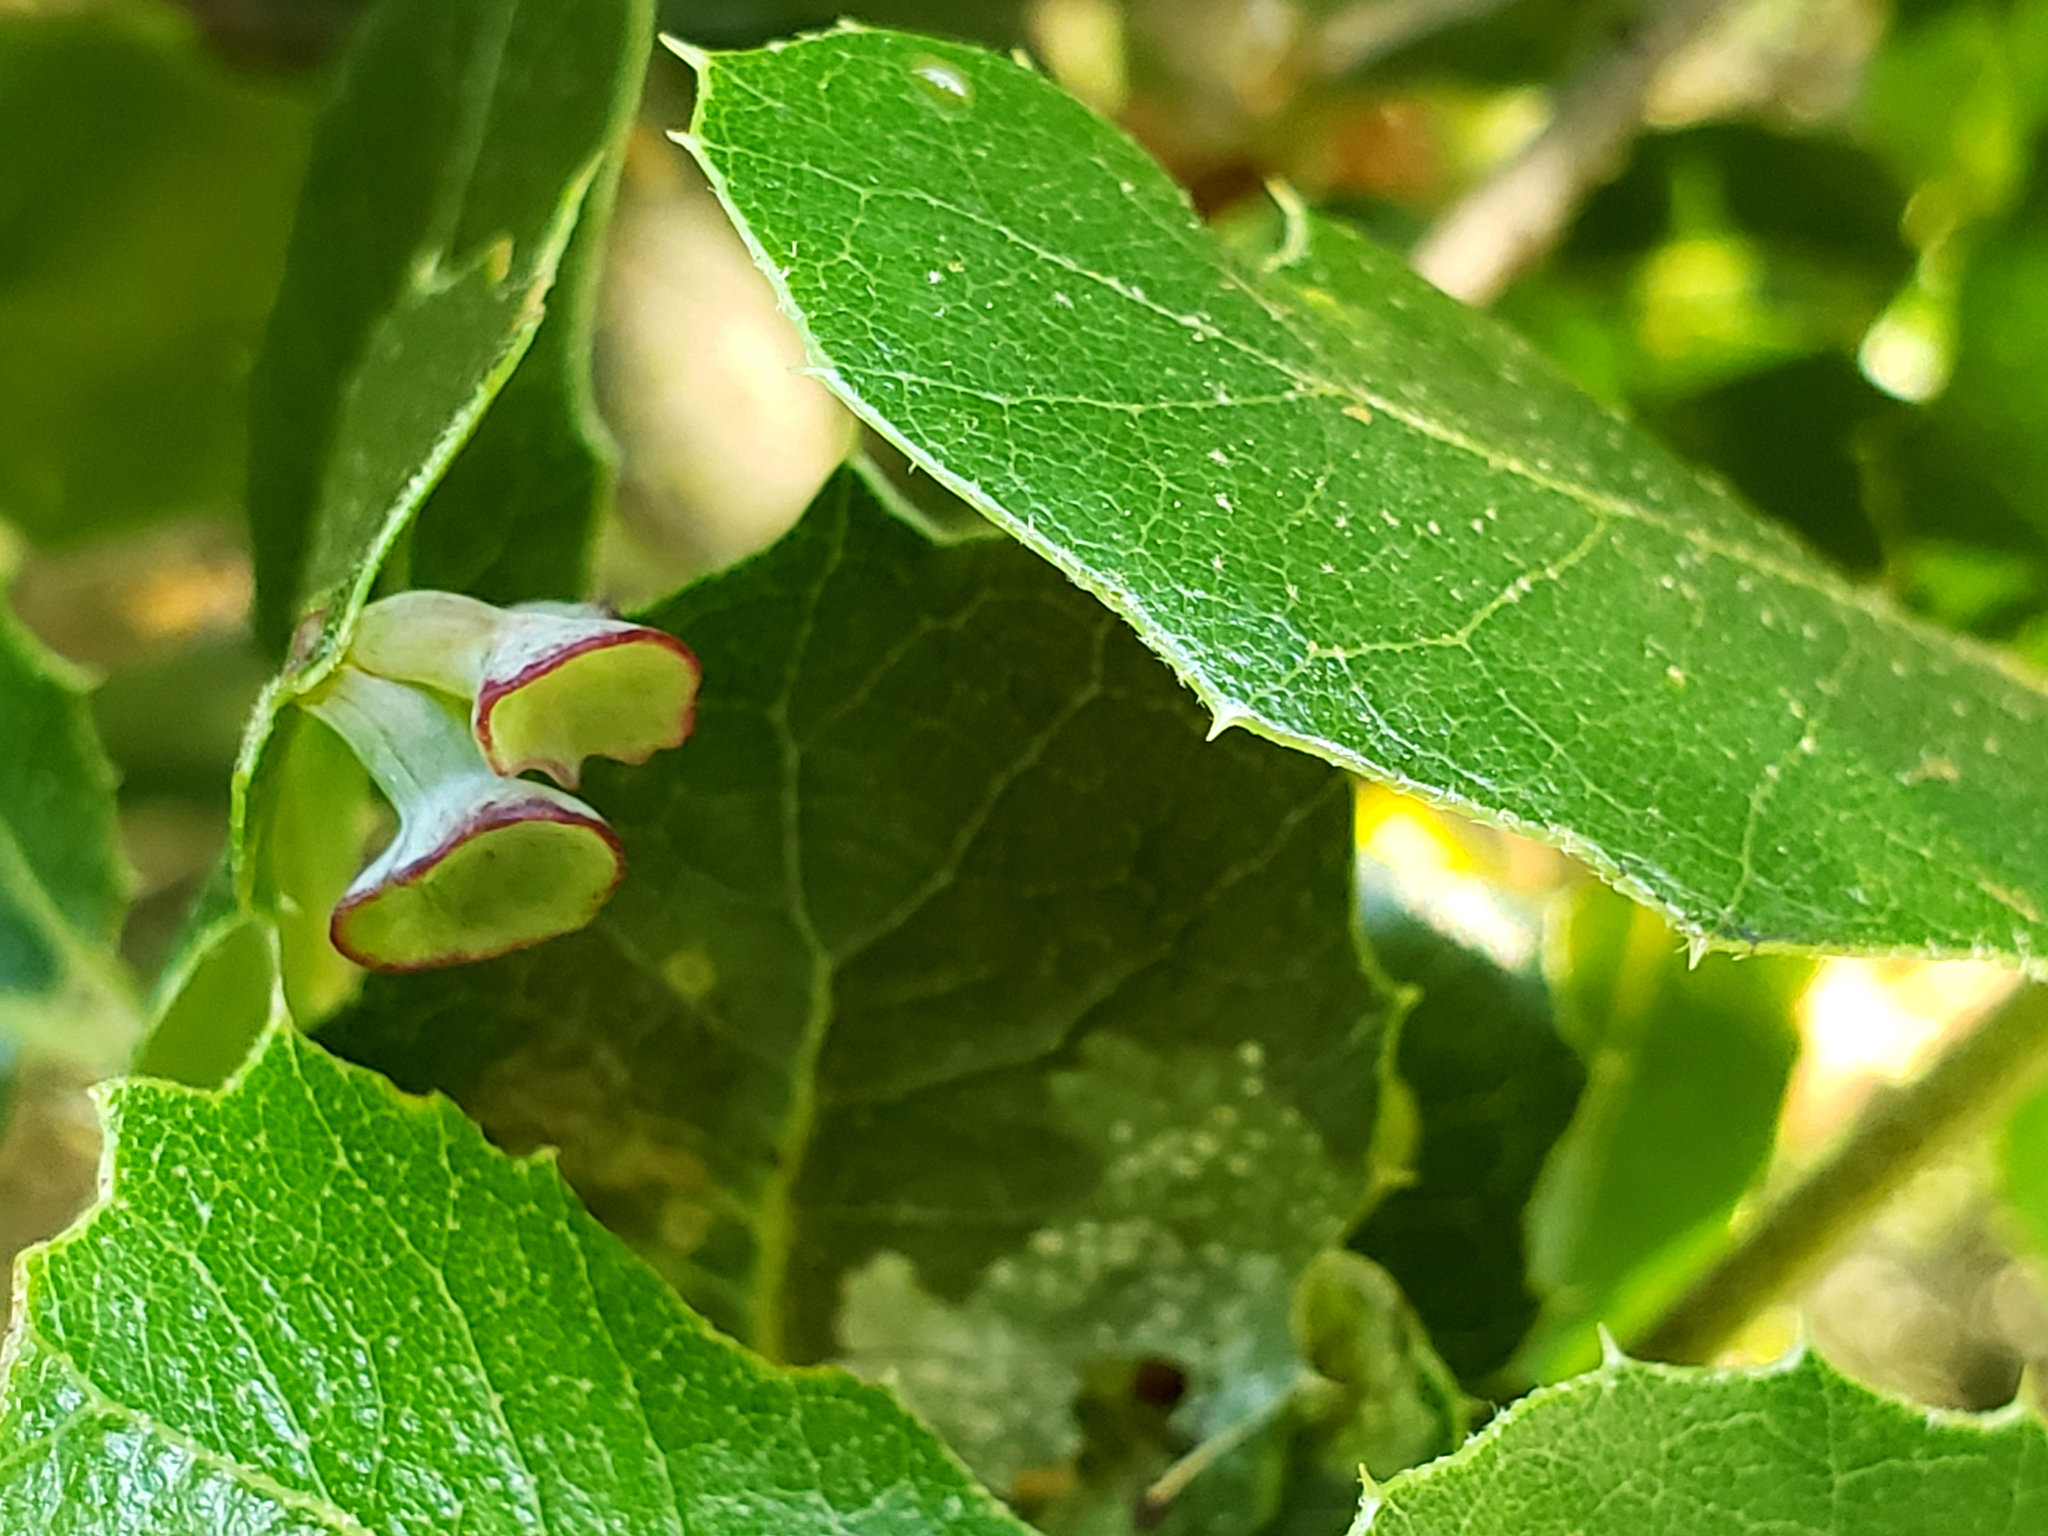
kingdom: Animalia
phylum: Arthropoda
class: Insecta
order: Hymenoptera
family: Cynipidae
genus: Amphibolips
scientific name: Amphibolips quercuspomiformis
